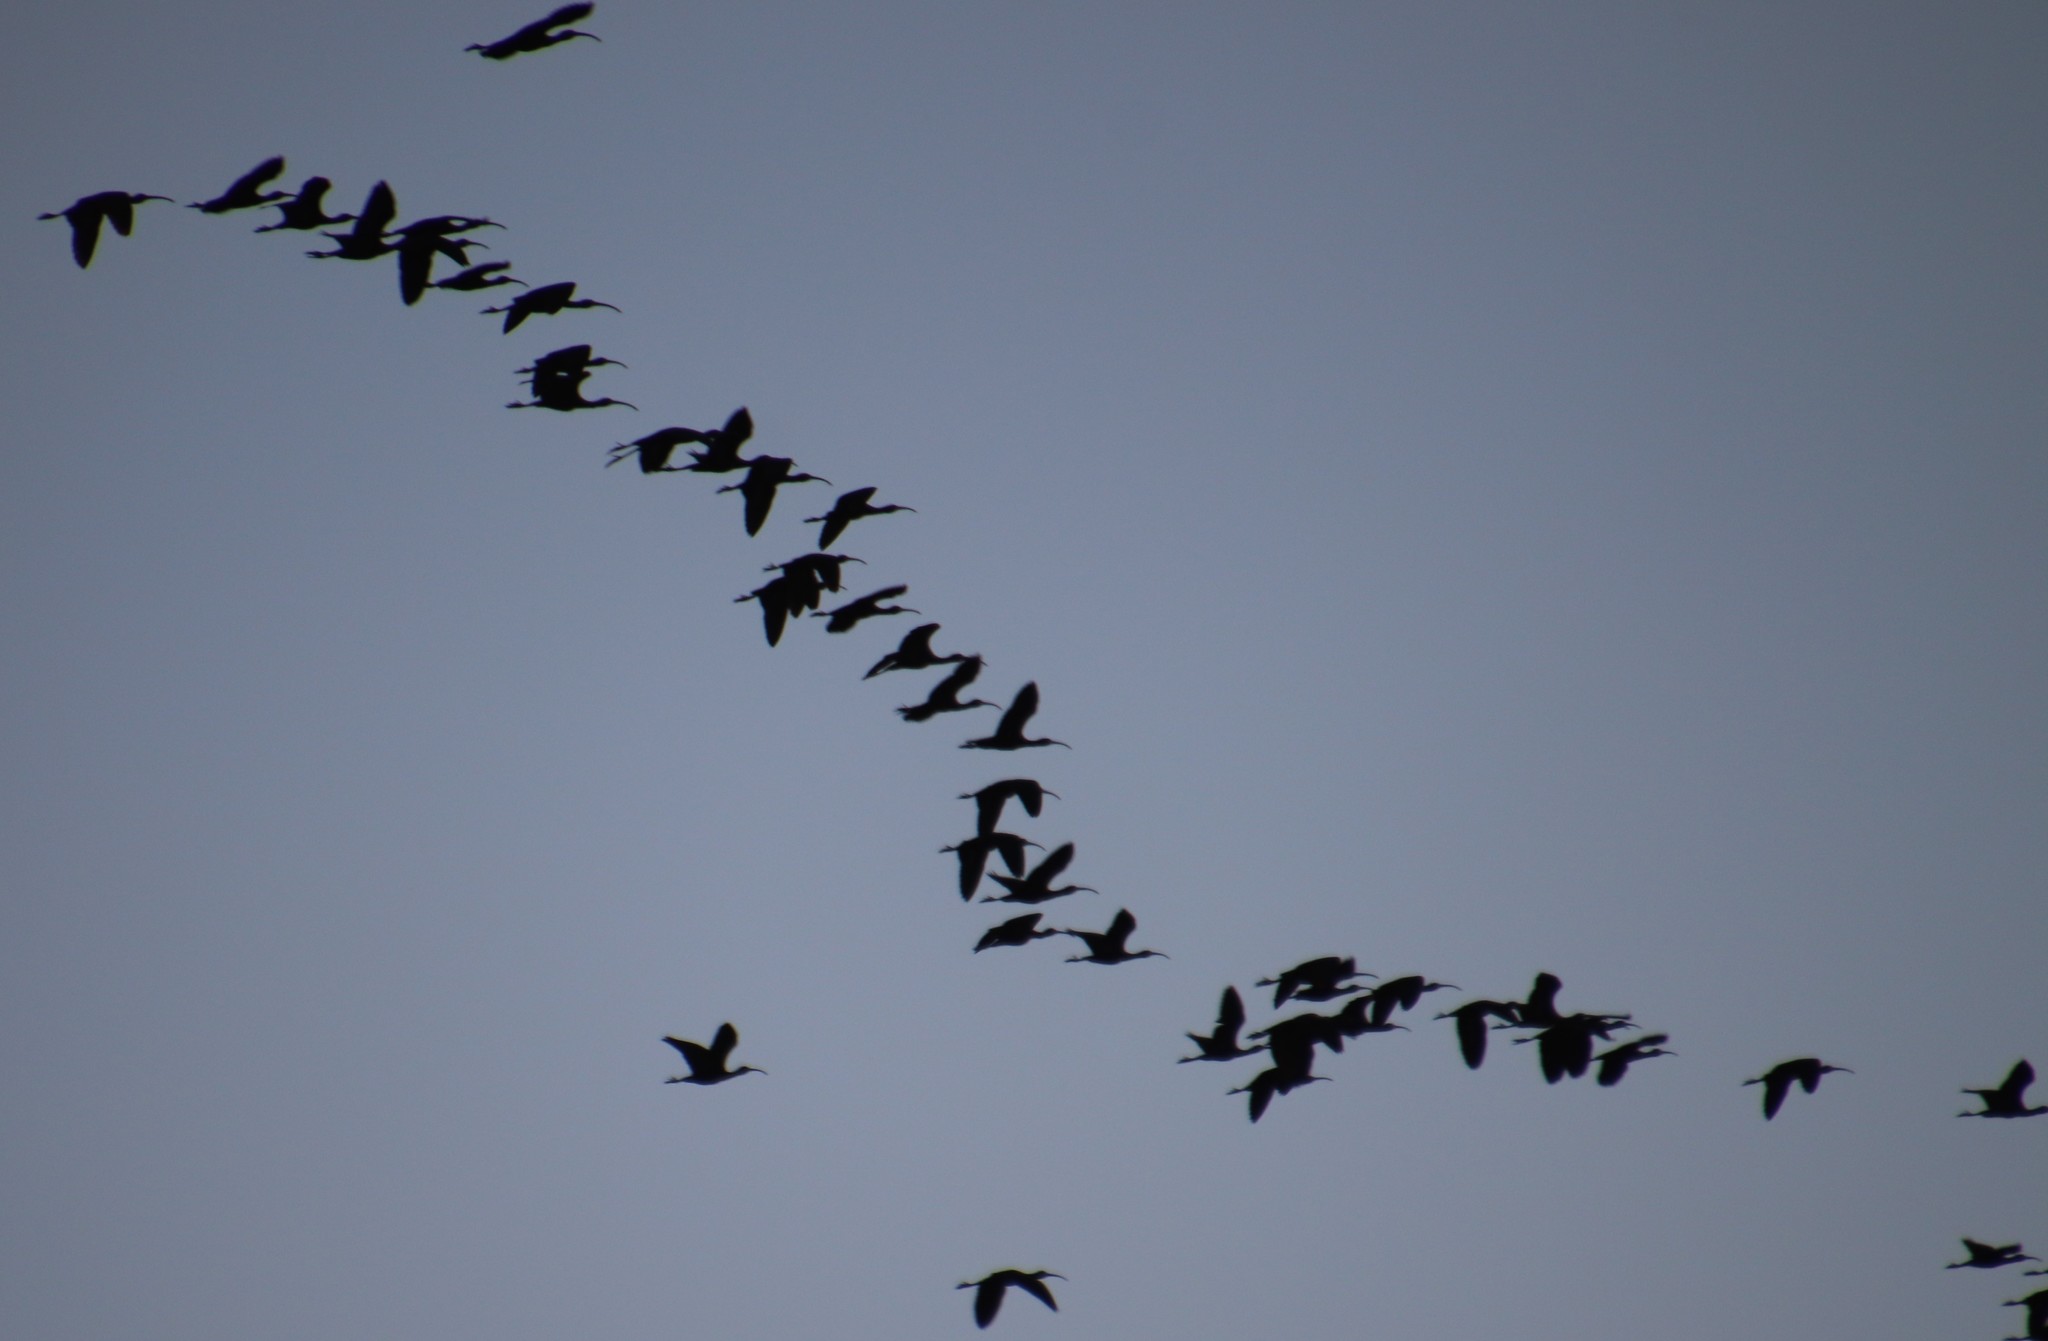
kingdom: Animalia
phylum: Chordata
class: Aves
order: Pelecaniformes
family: Threskiornithidae
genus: Plegadis
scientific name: Plegadis chihi
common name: White-faced ibis
